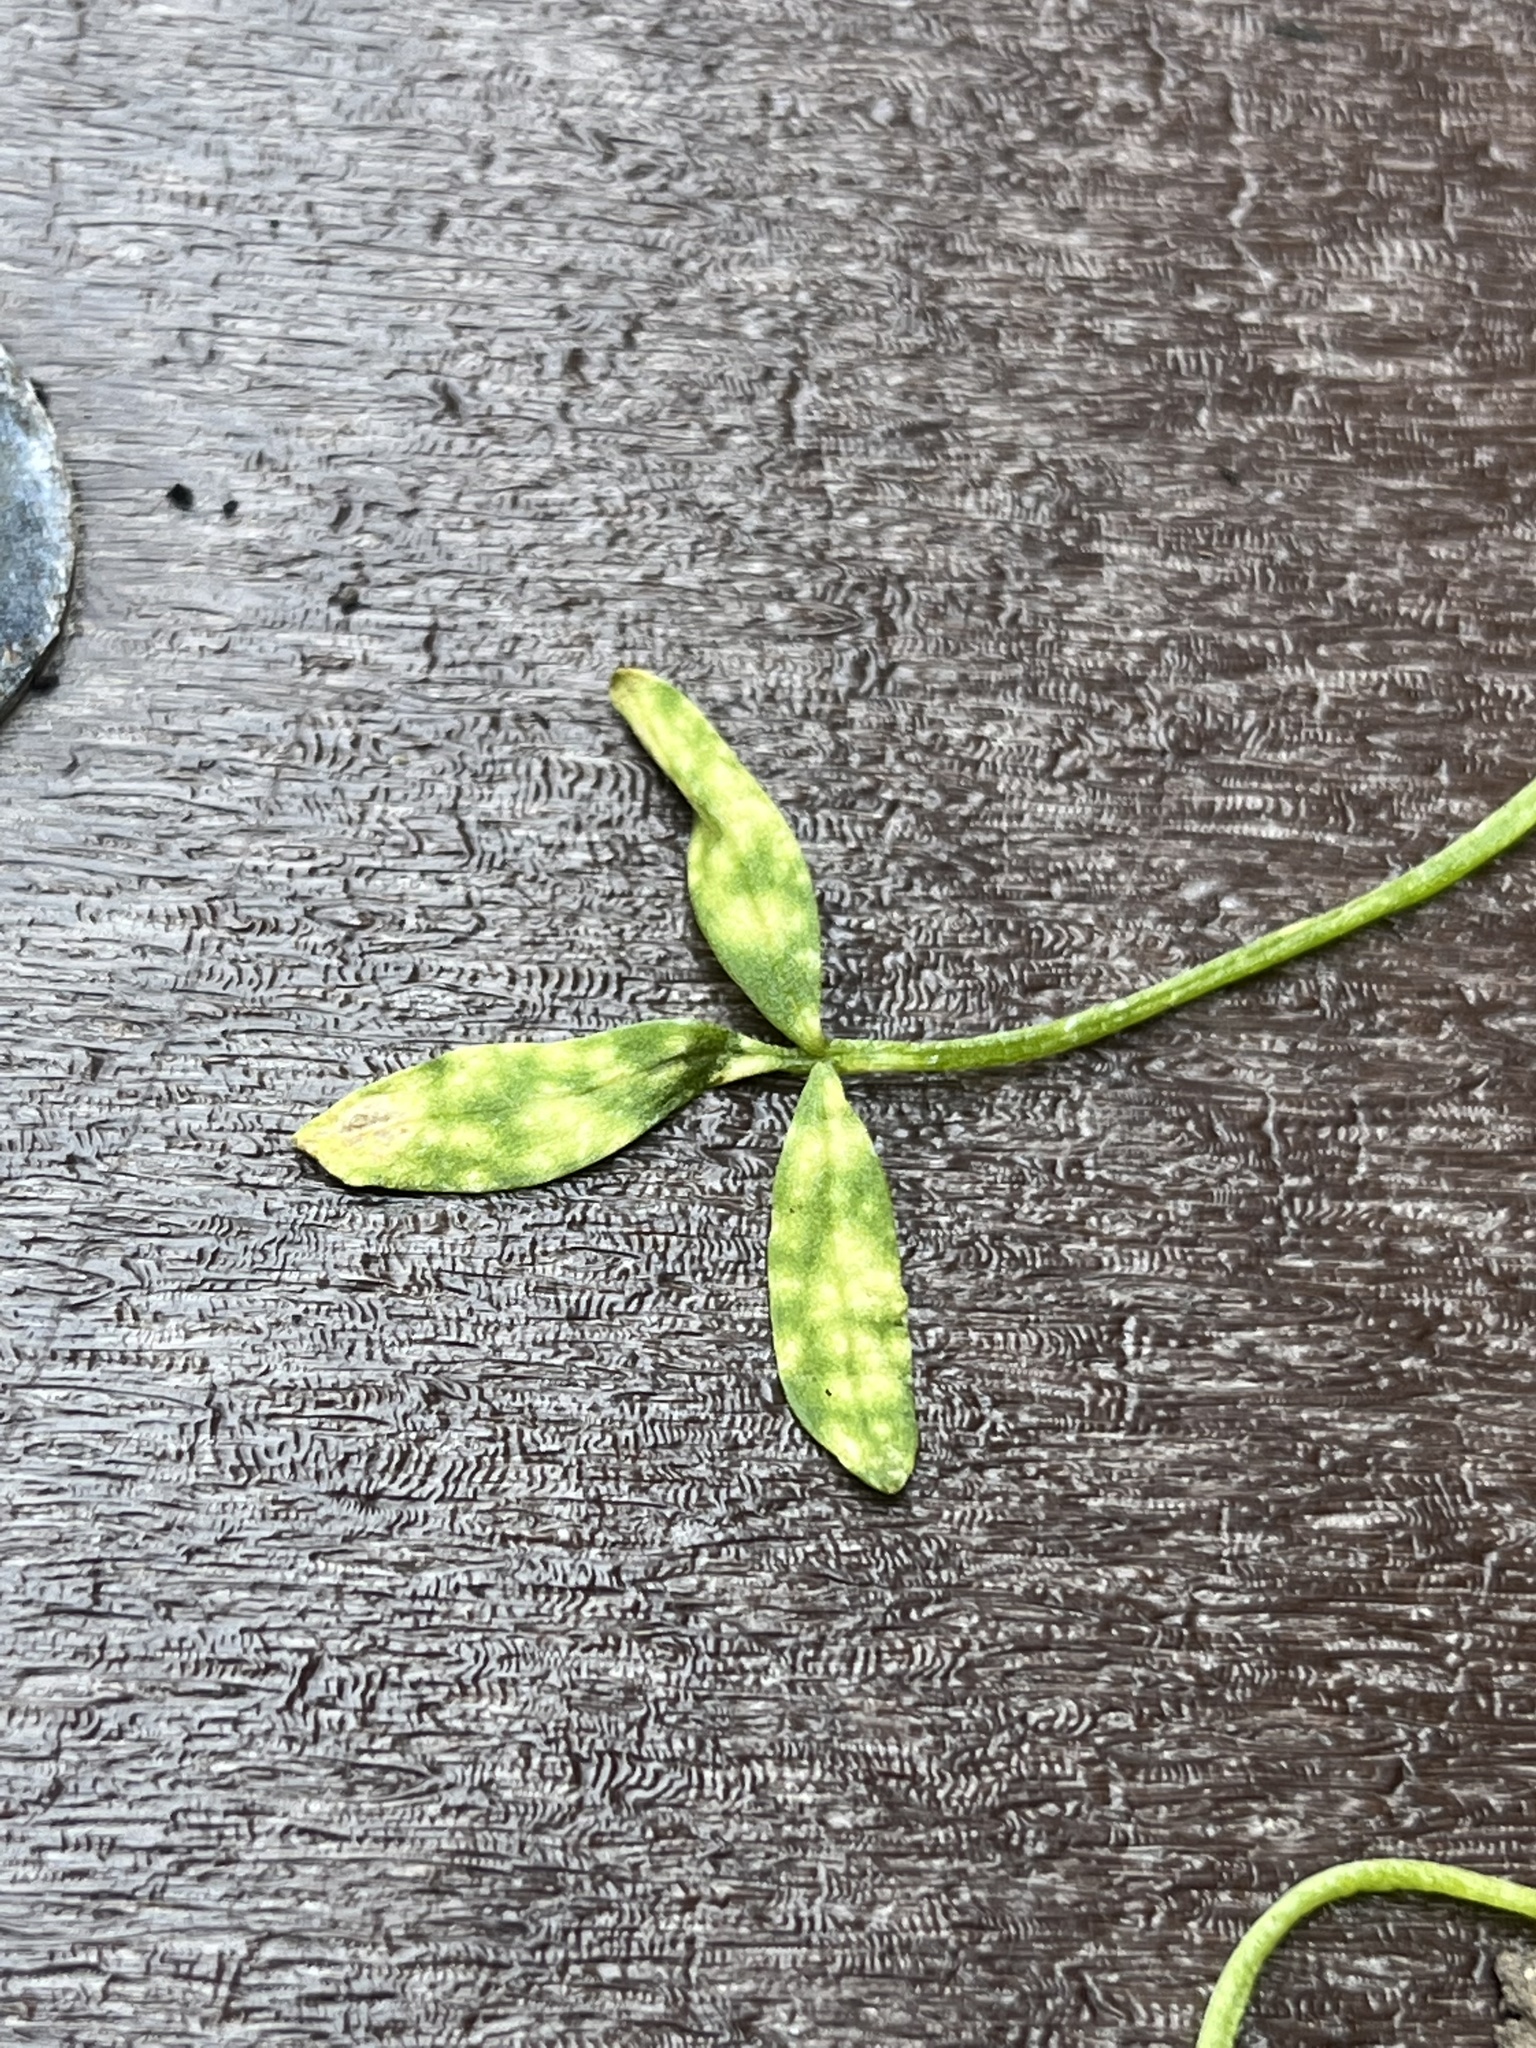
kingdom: Fungi
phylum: Basidiomycota
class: Exobasidiomycetes
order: Entylomatales
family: Entylomataceae
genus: Entyloma
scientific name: Entyloma floerkeae
